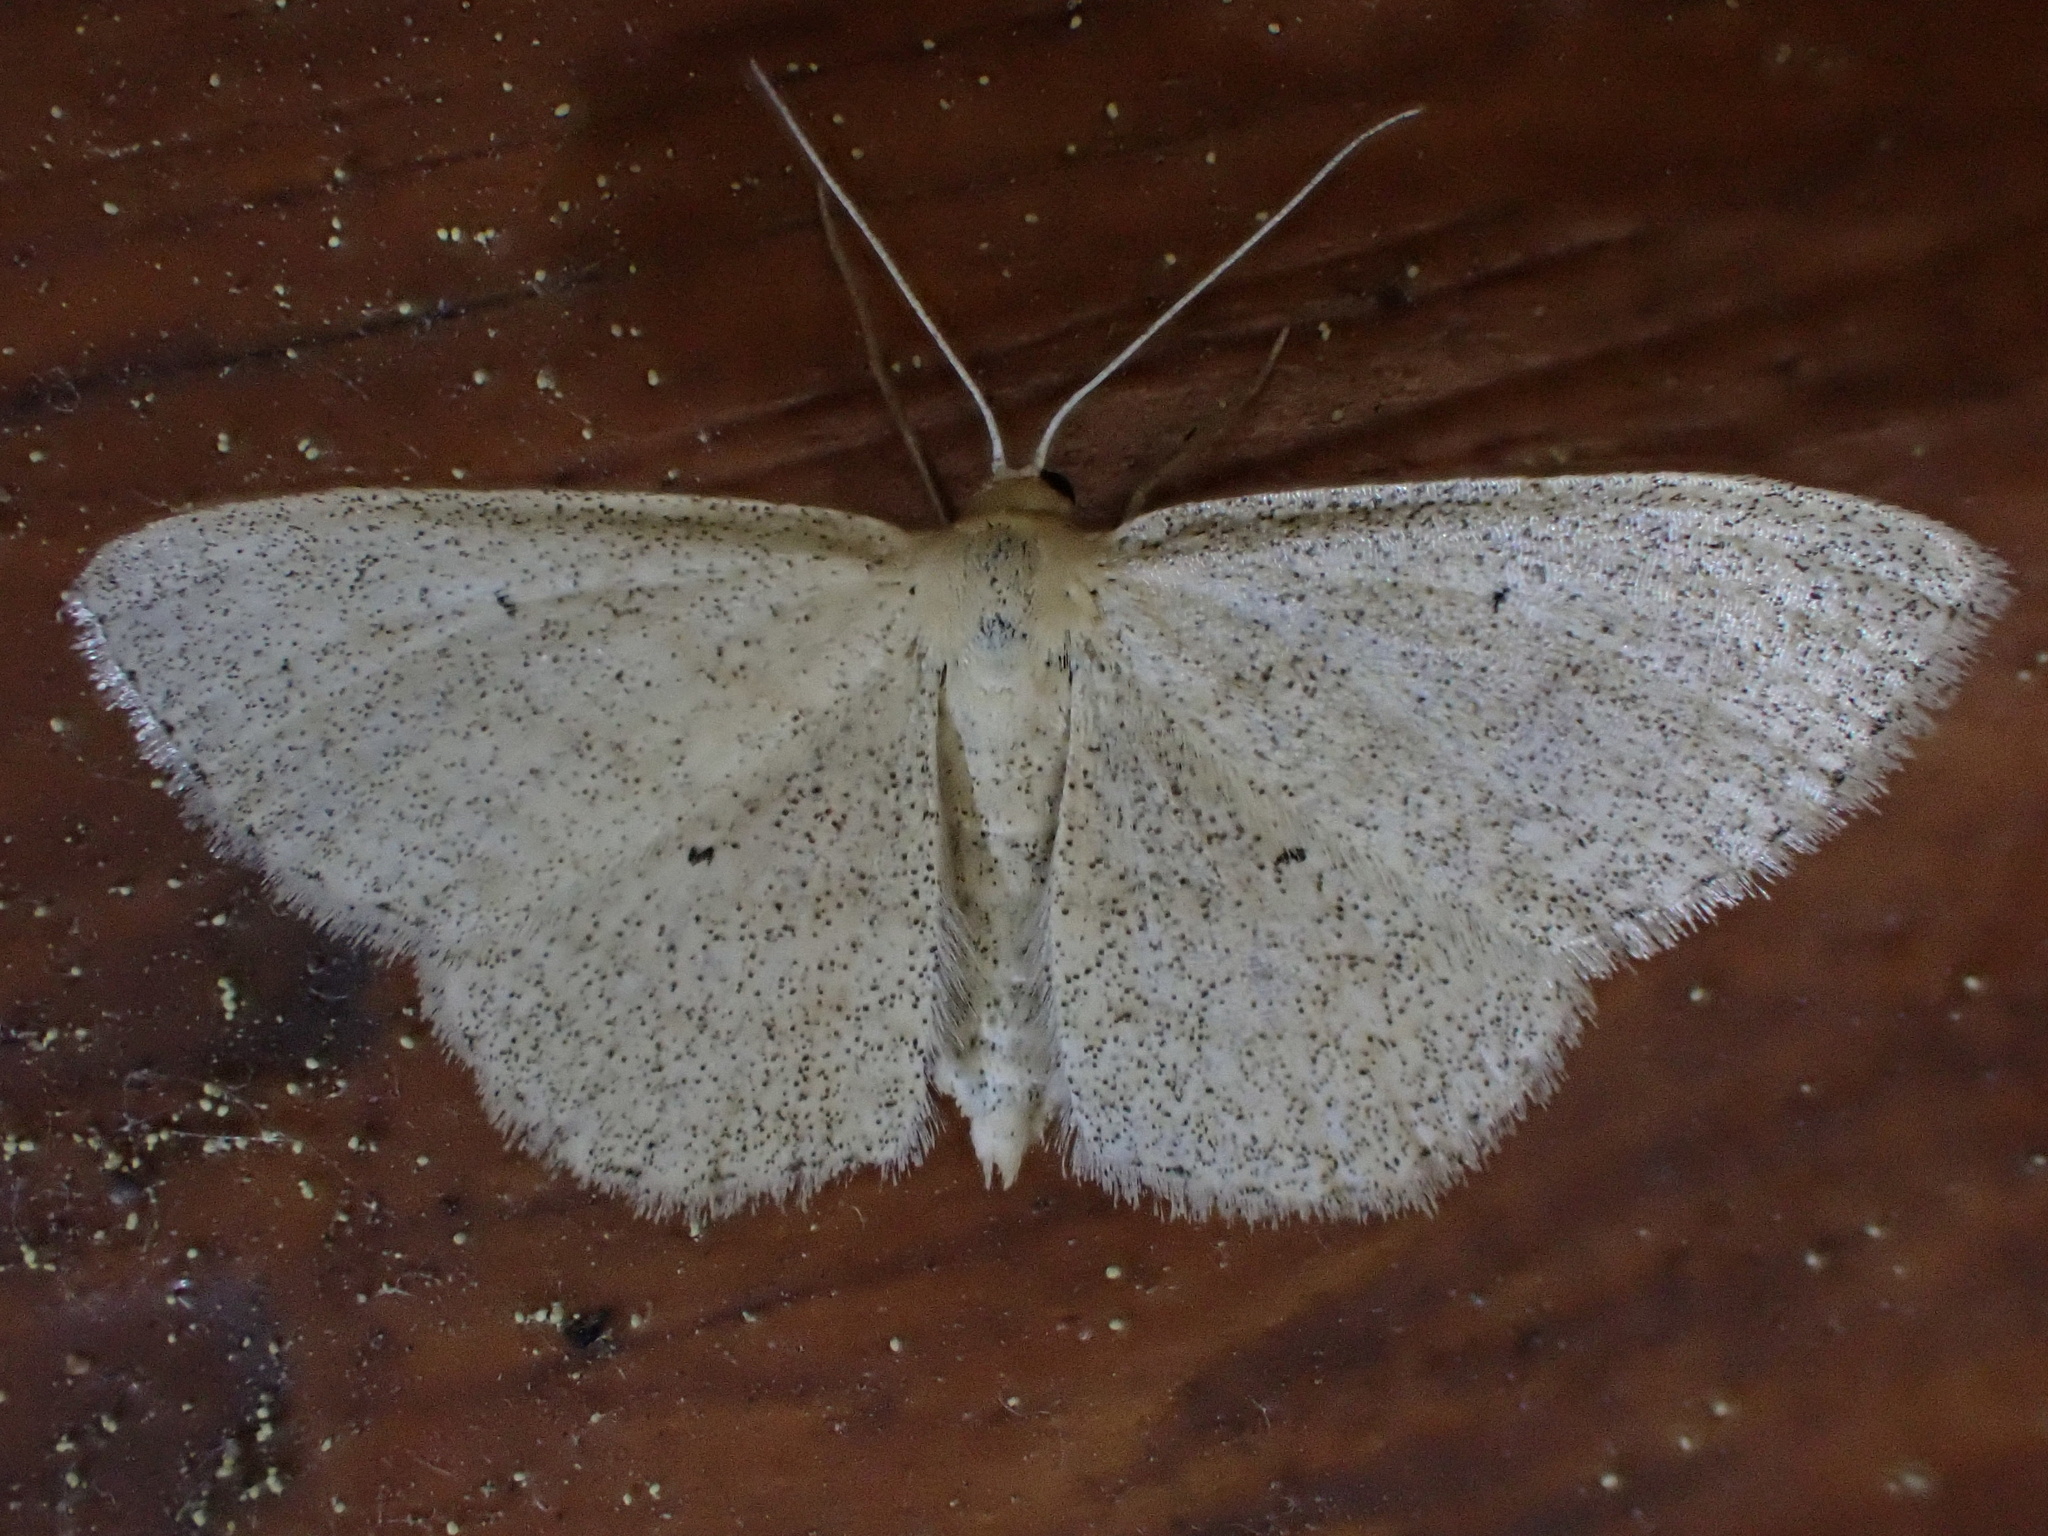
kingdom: Animalia
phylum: Arthropoda
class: Insecta
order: Lepidoptera
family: Geometridae
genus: Scopula
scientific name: Scopula inductata
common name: Soft-lined wave
